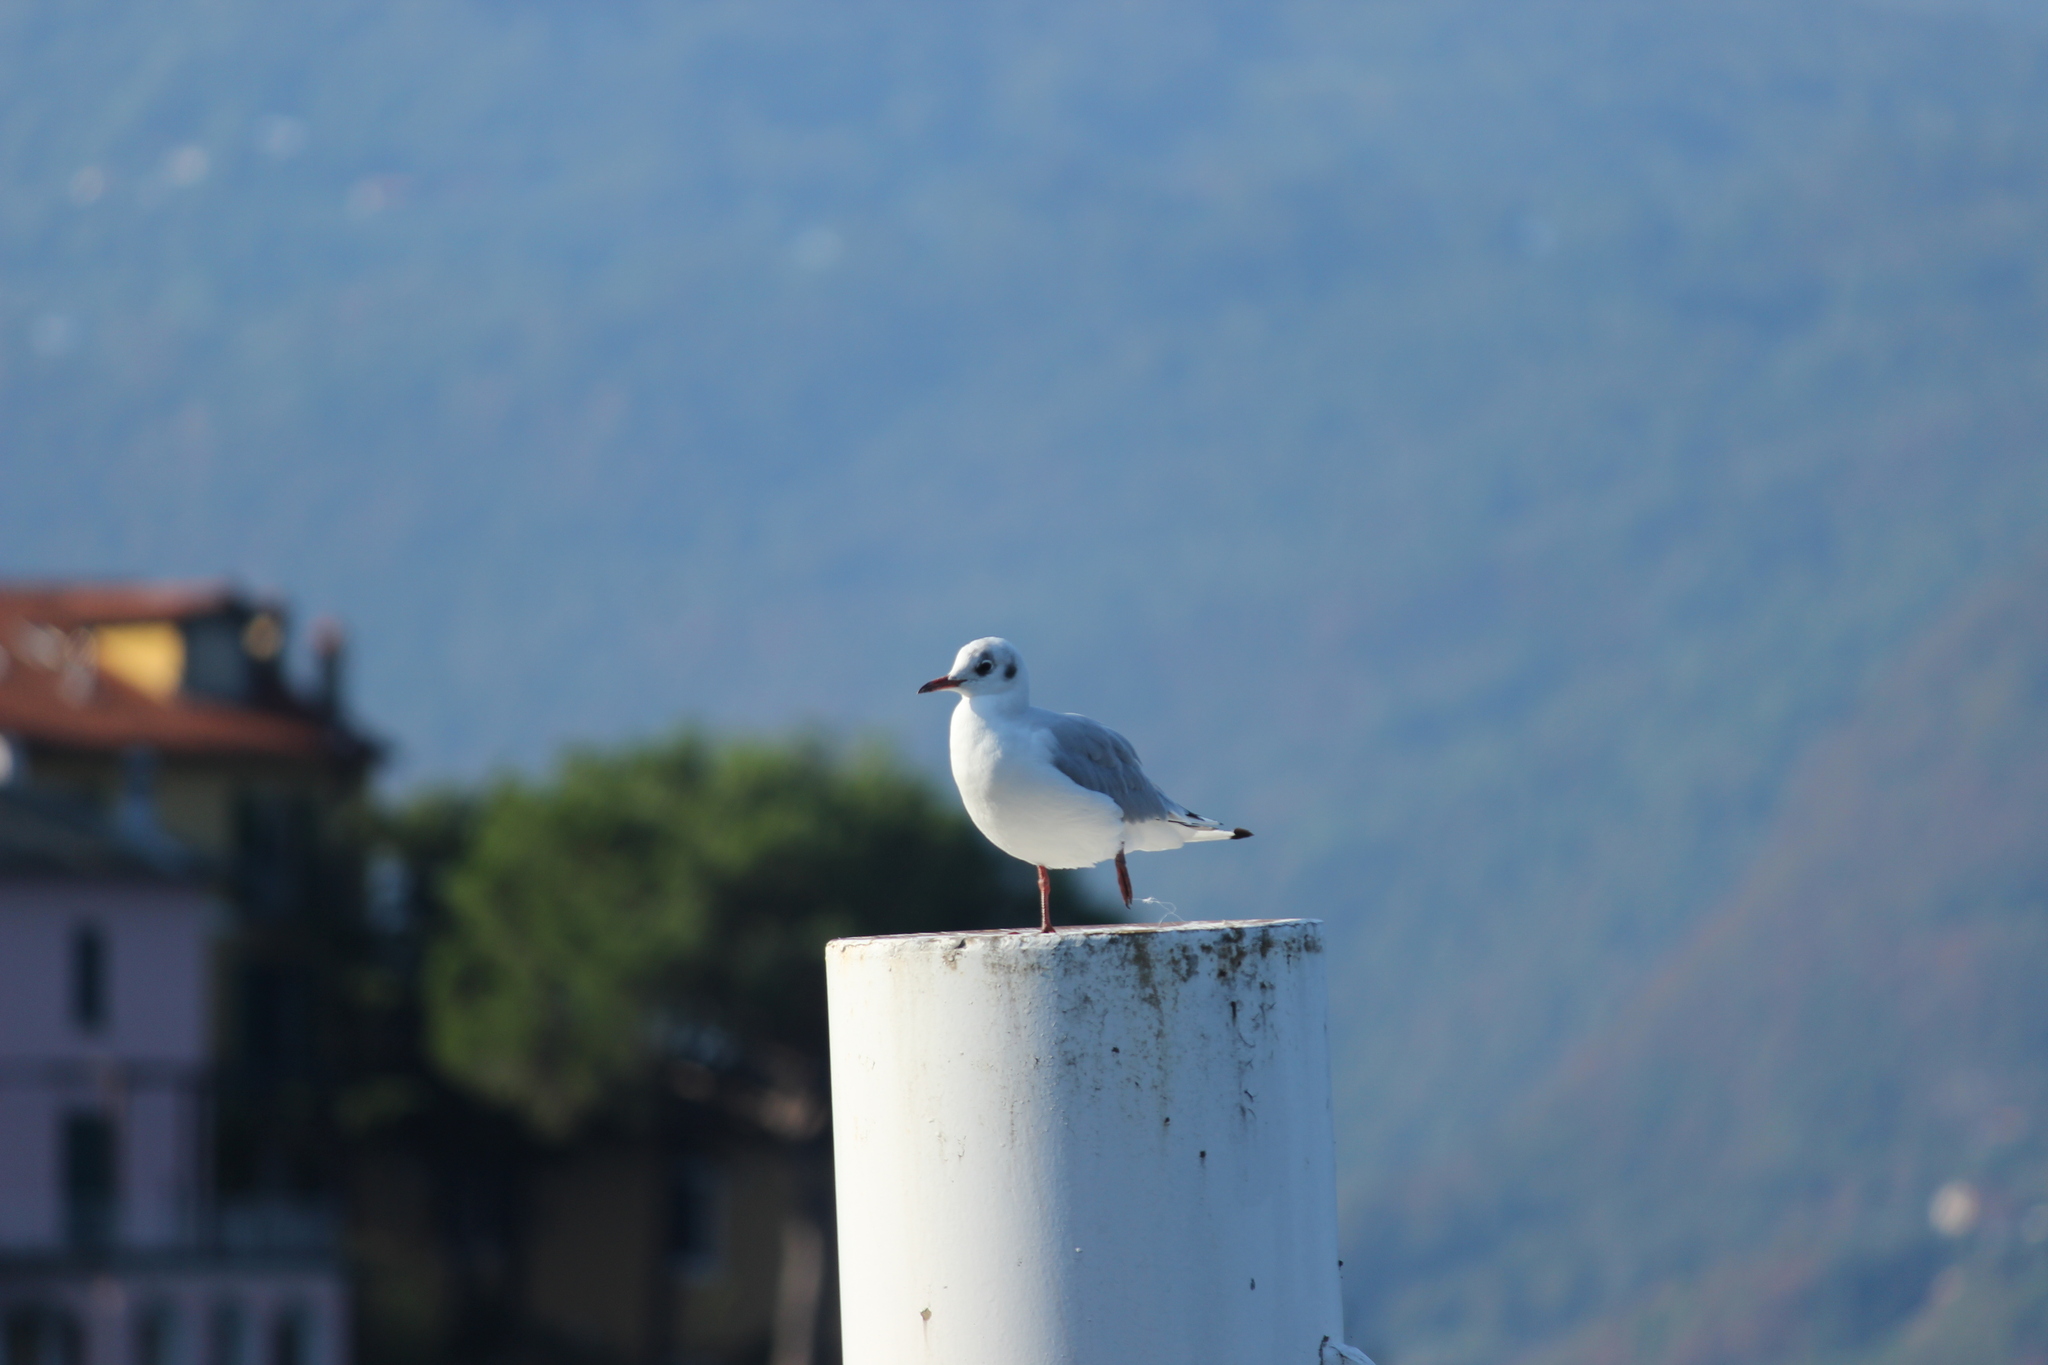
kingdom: Animalia
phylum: Chordata
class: Aves
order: Charadriiformes
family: Laridae
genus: Chroicocephalus
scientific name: Chroicocephalus ridibundus
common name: Black-headed gull
